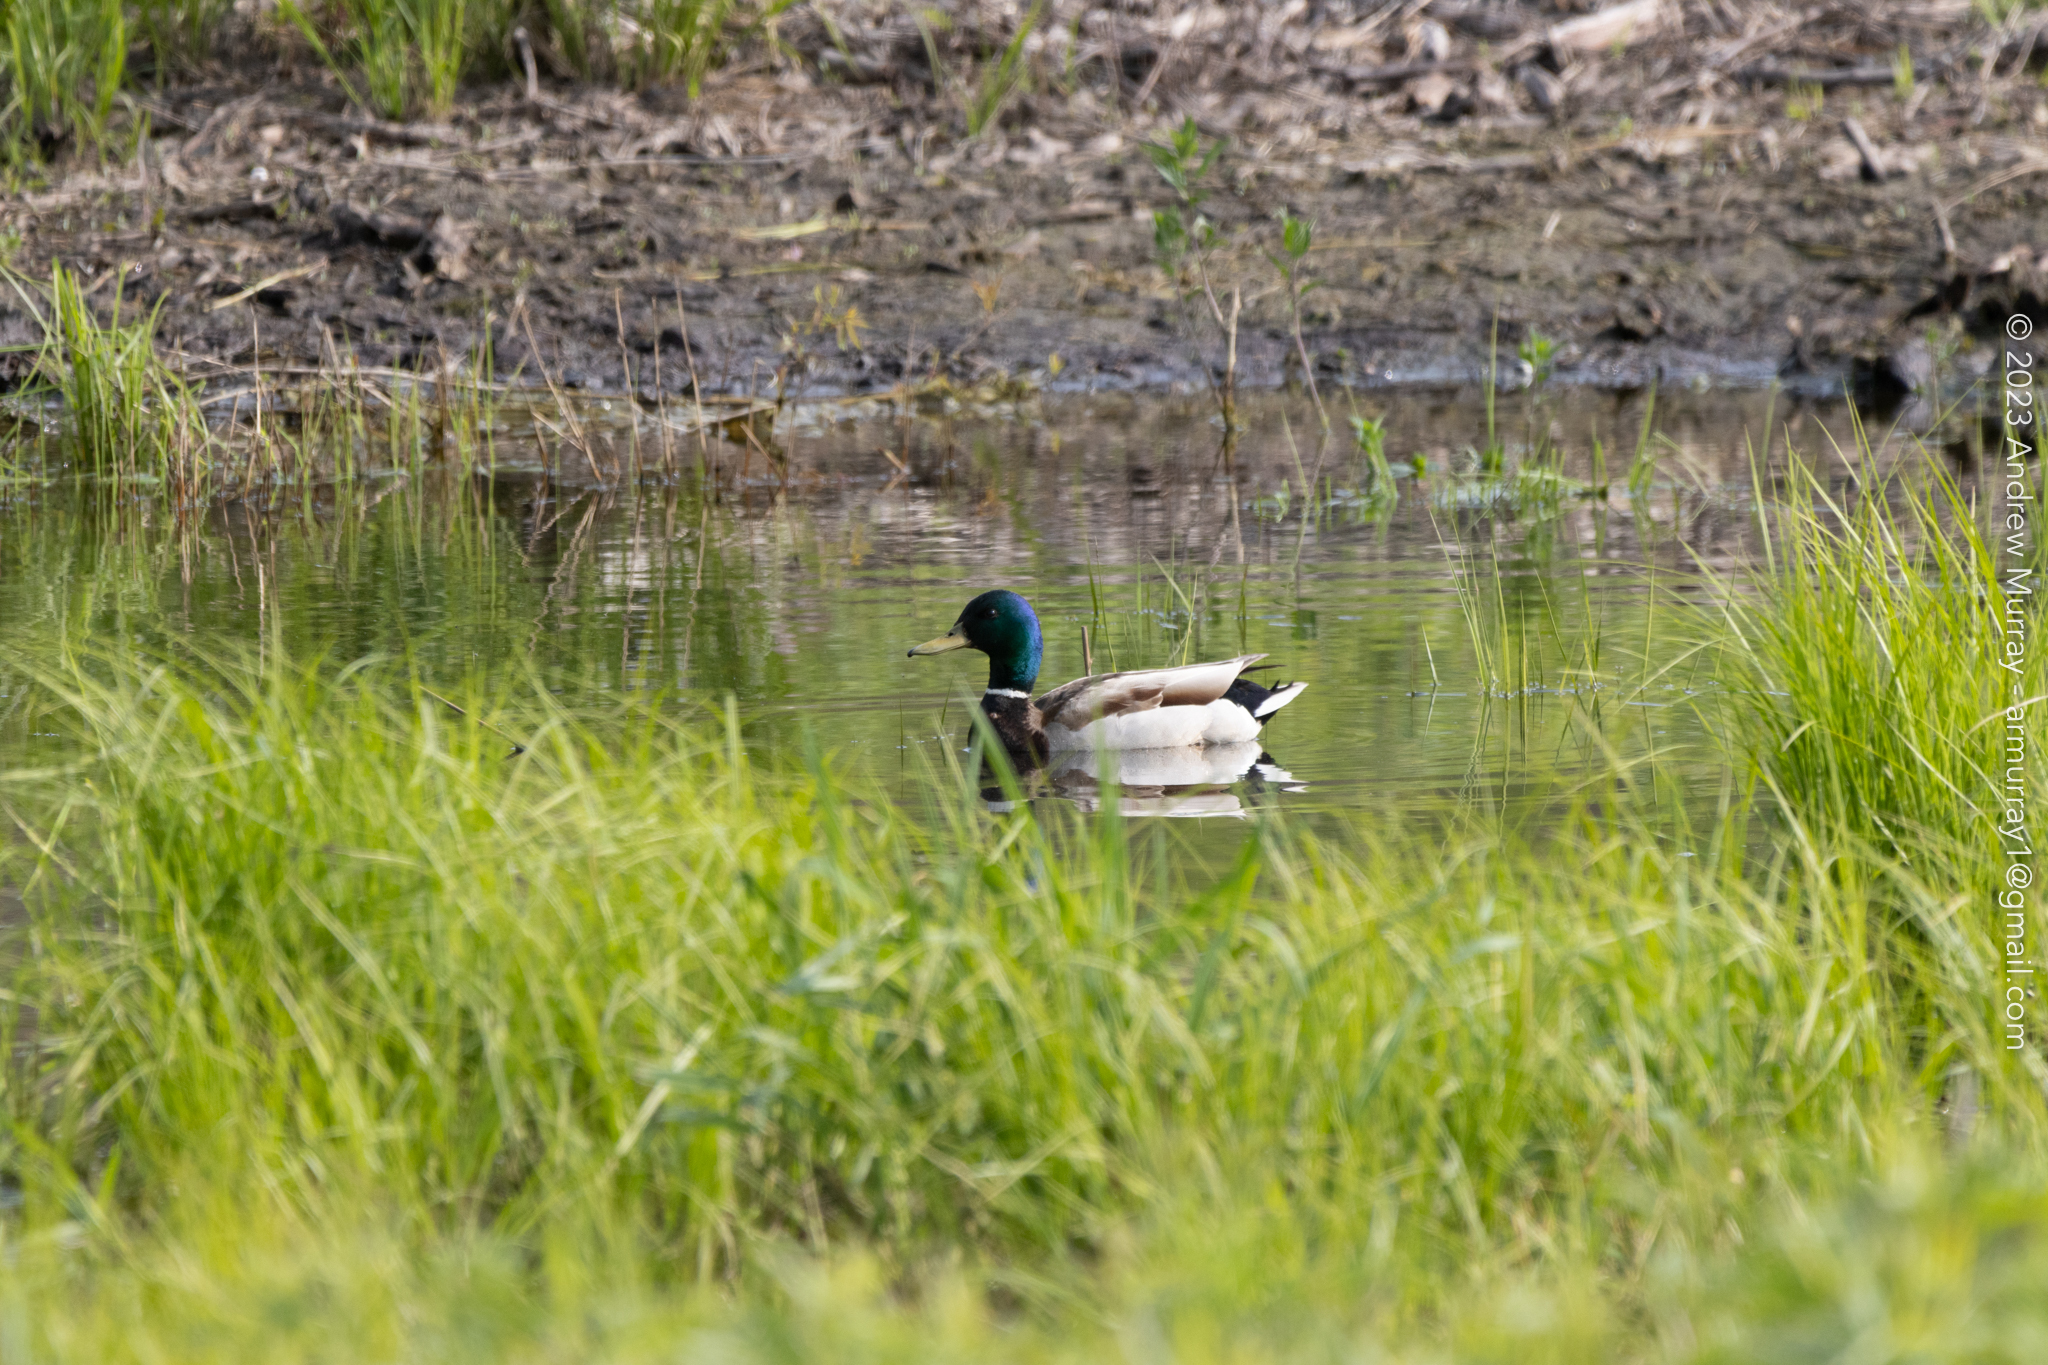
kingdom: Animalia
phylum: Chordata
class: Aves
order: Anseriformes
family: Anatidae
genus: Anas
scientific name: Anas platyrhynchos
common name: Mallard
